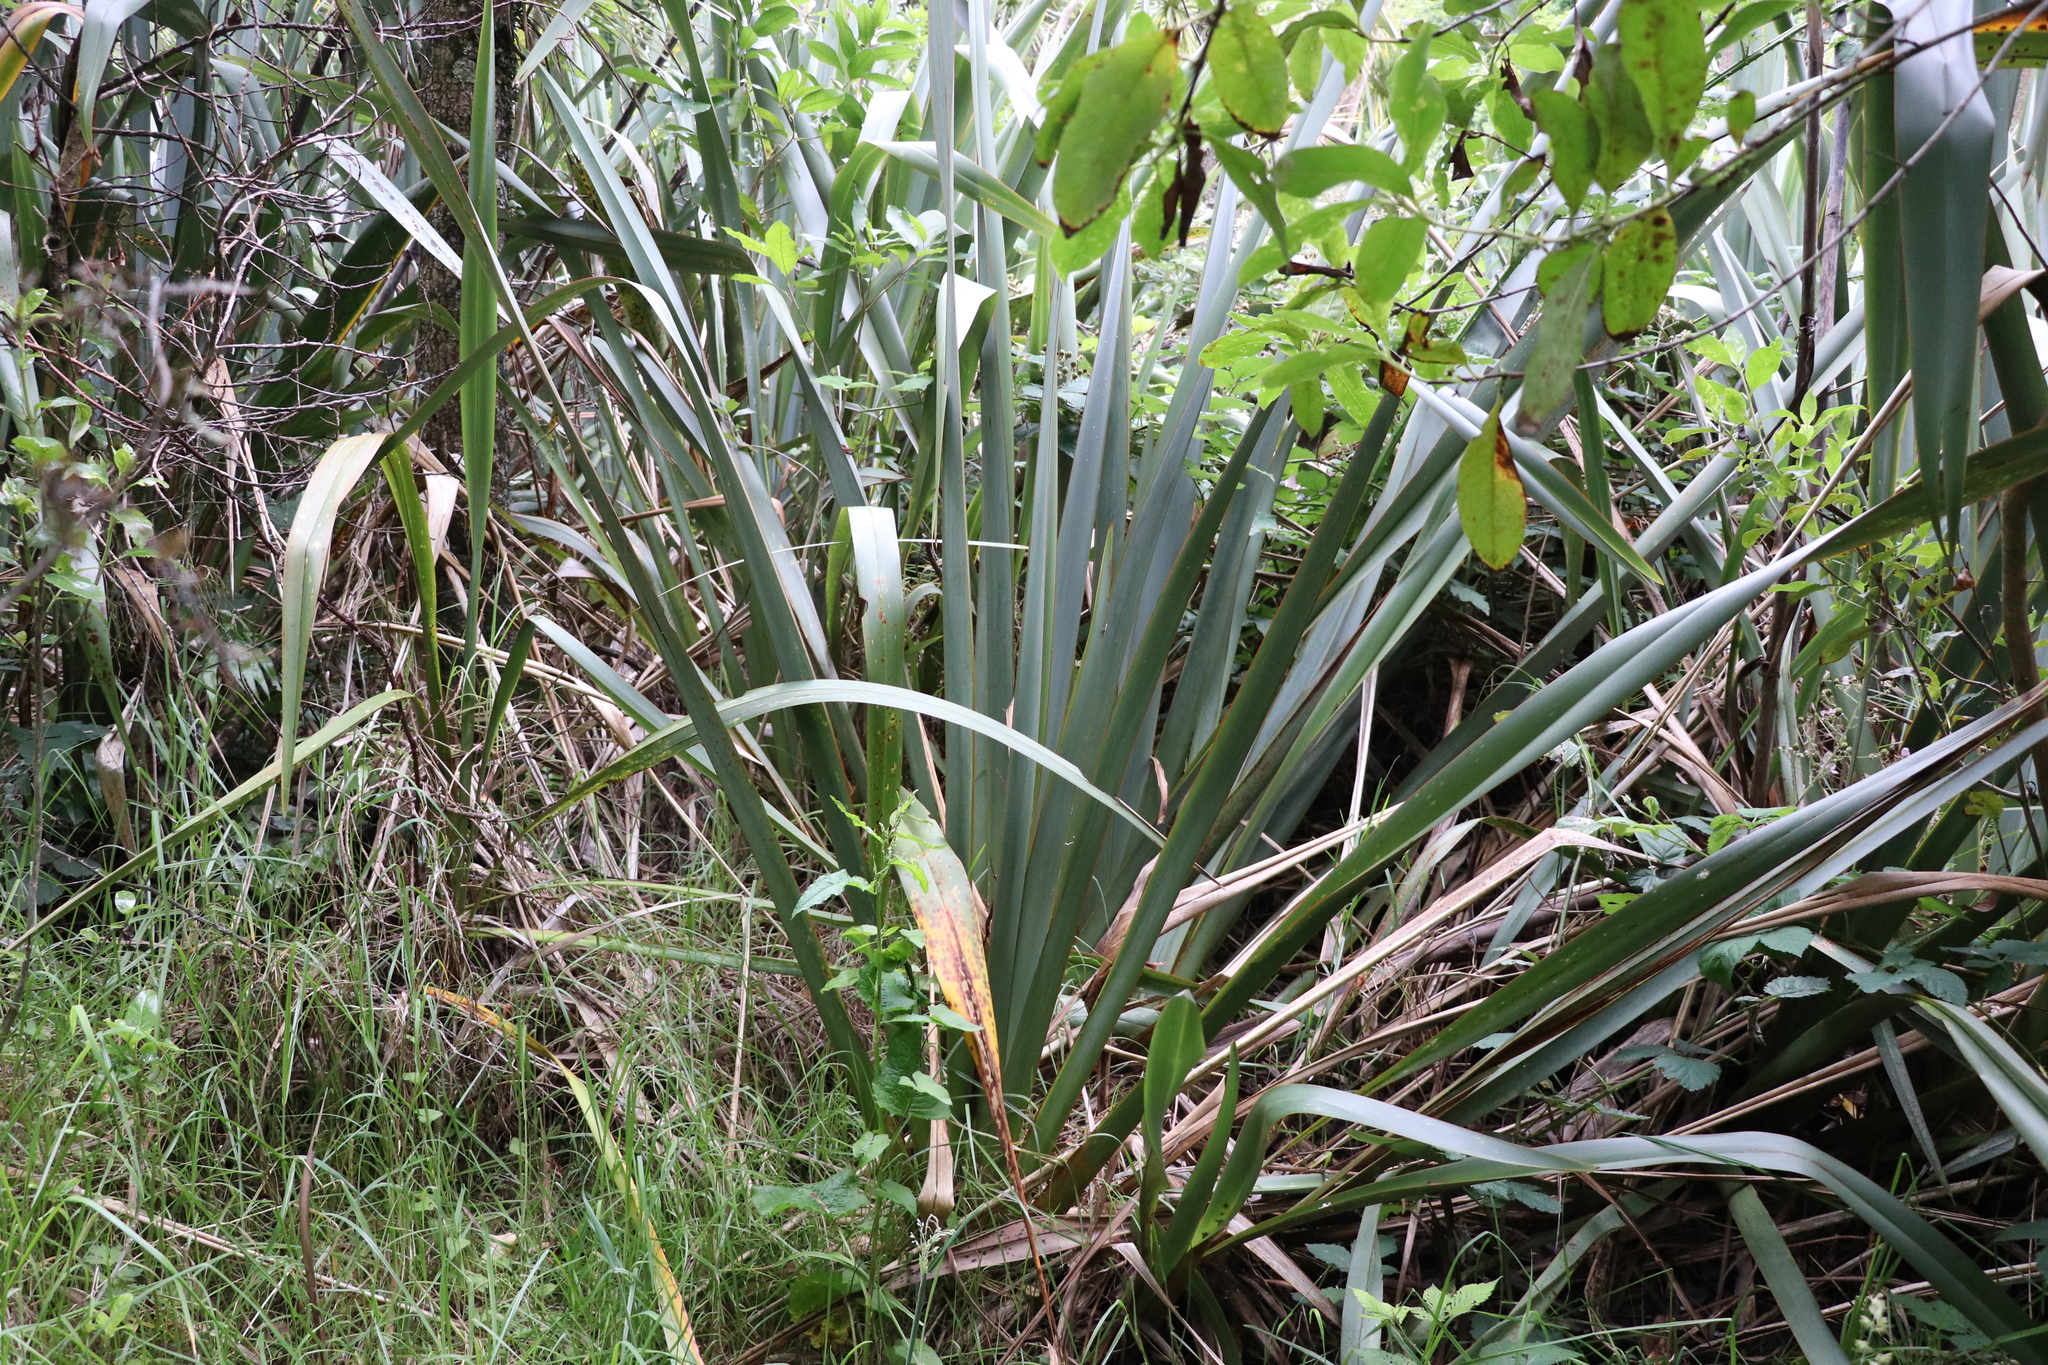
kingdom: Plantae
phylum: Tracheophyta
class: Liliopsida
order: Asparagales
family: Asphodelaceae
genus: Phormium
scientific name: Phormium tenax
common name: New zealand flax
